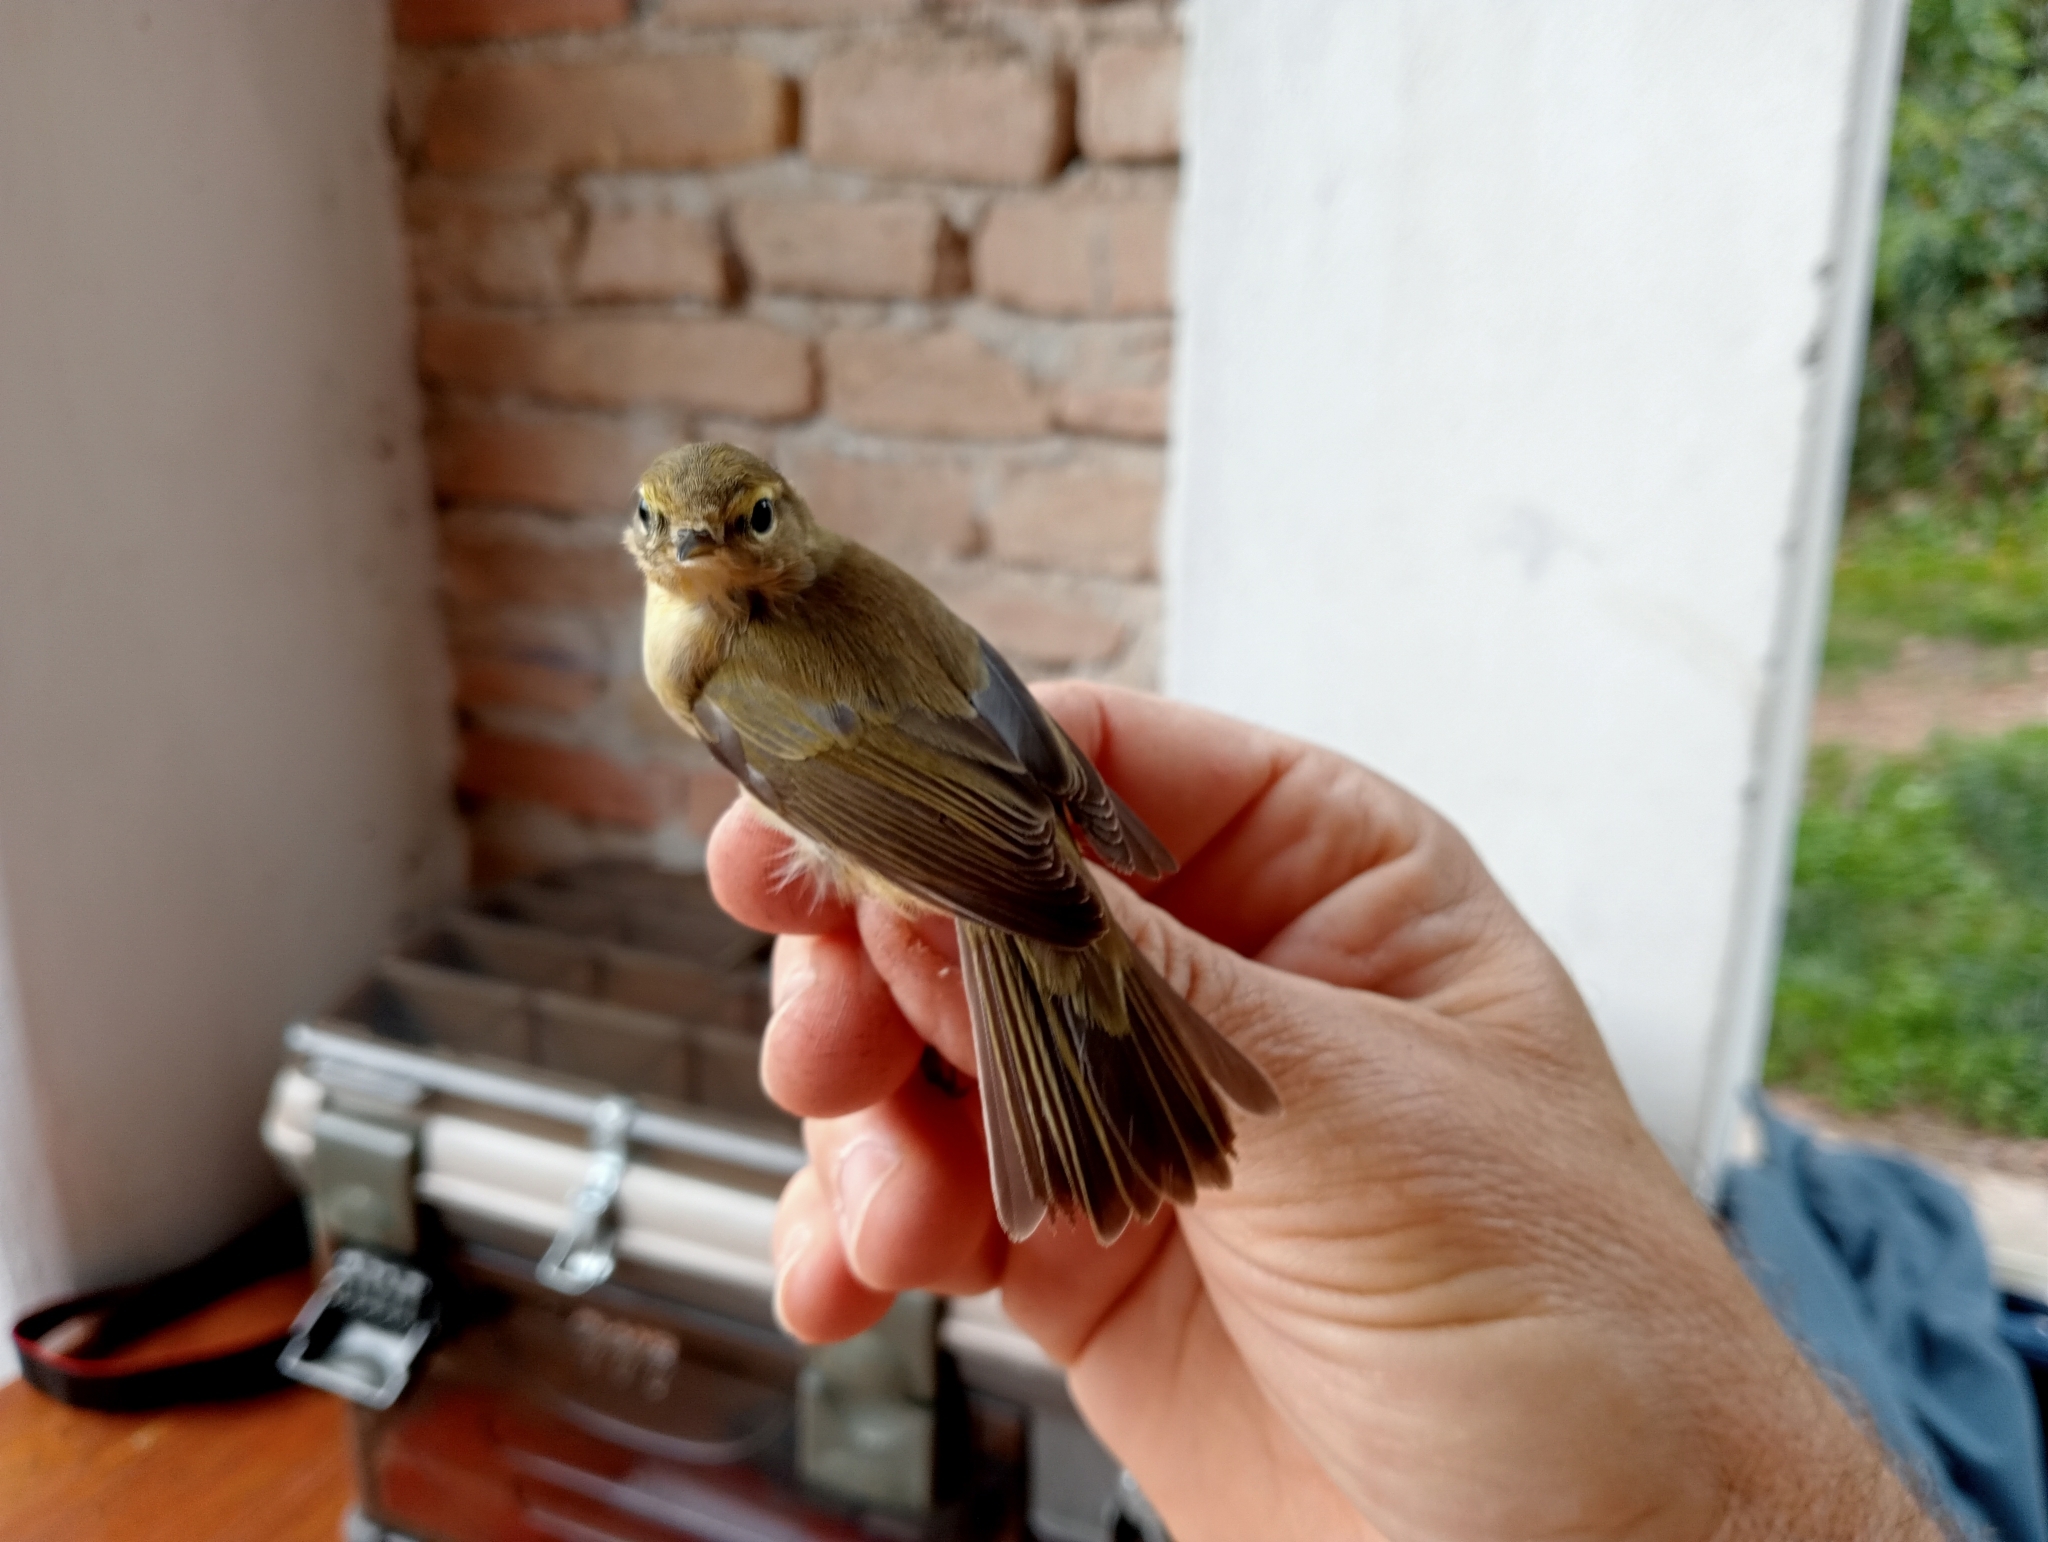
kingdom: Animalia
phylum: Chordata
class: Aves
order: Passeriformes
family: Phylloscopidae
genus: Phylloscopus
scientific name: Phylloscopus collybita
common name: Common chiffchaff
